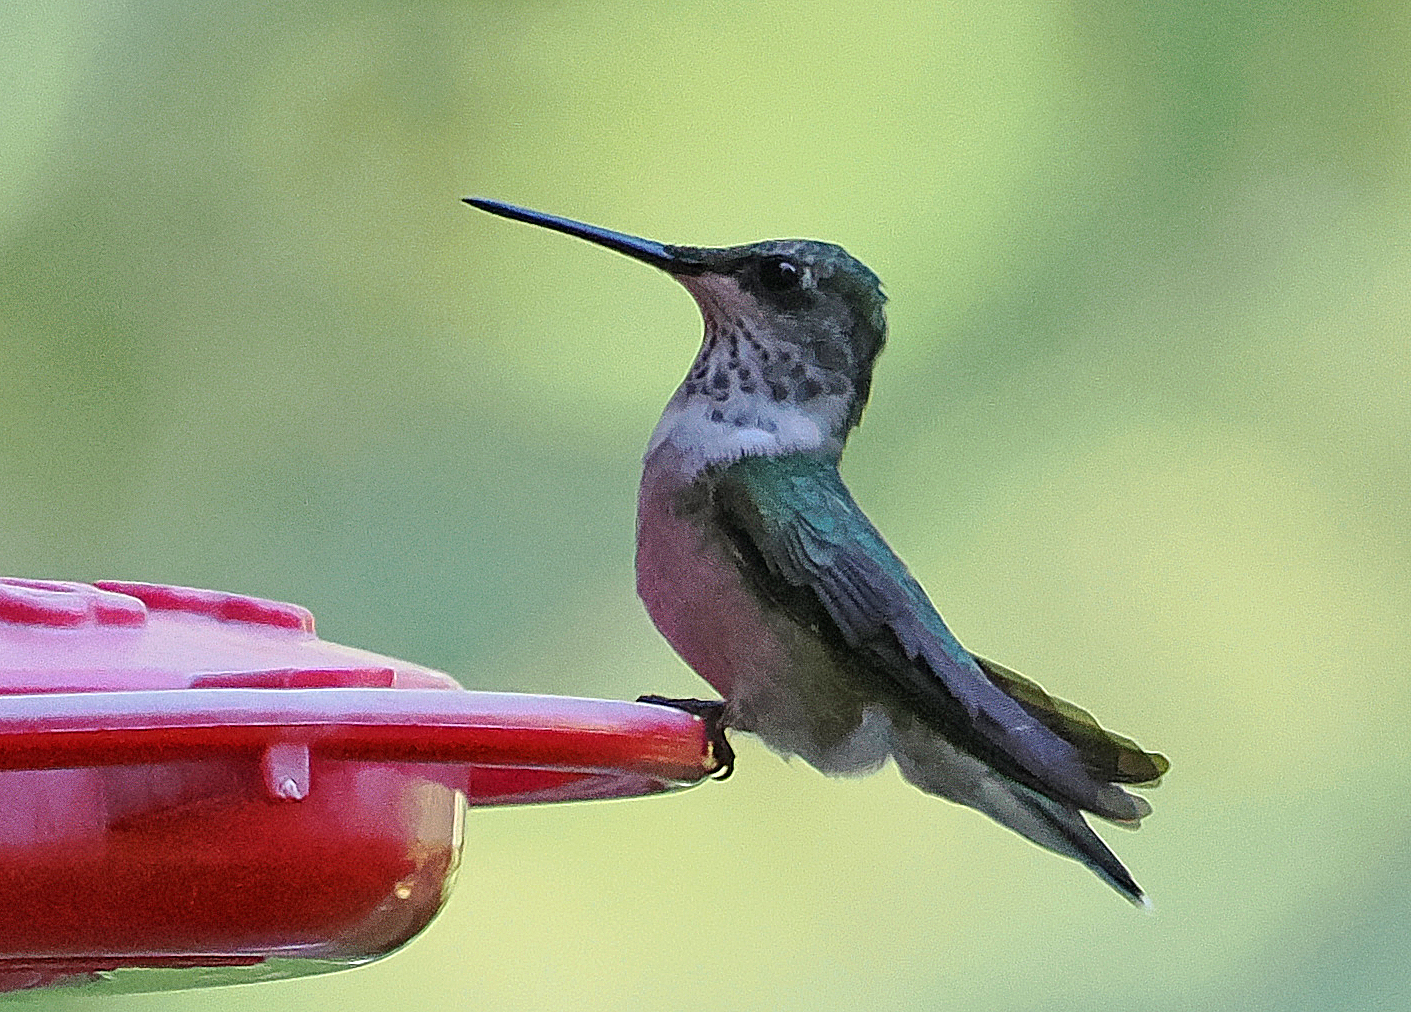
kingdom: Animalia
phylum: Chordata
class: Aves
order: Apodiformes
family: Trochilidae
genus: Archilochus
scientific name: Archilochus colubris
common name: Ruby-throated hummingbird
